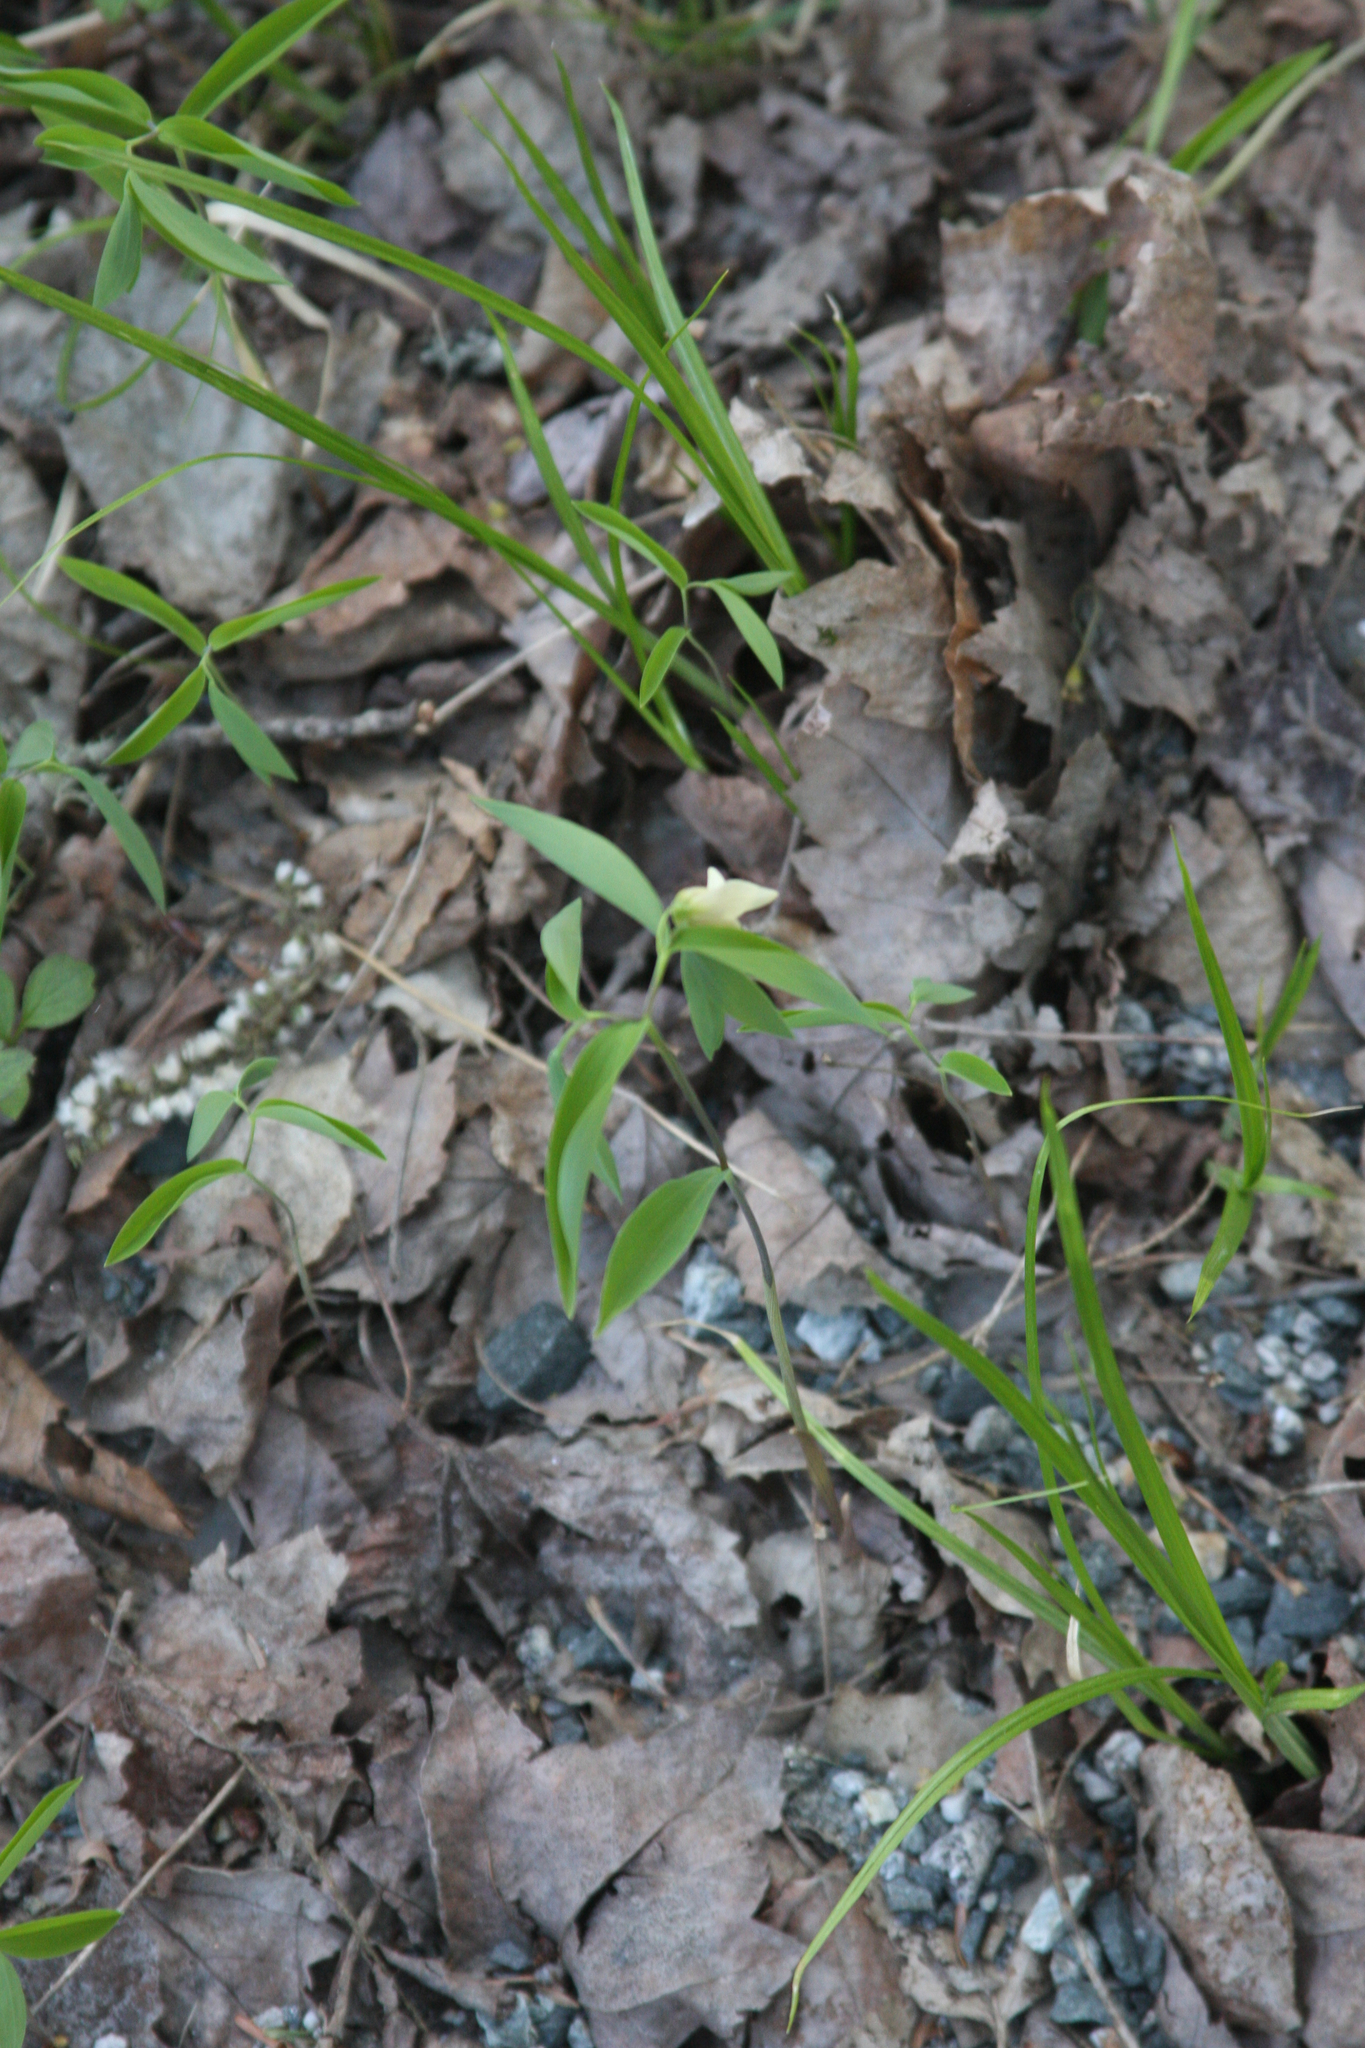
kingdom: Plantae
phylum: Tracheophyta
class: Liliopsida
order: Liliales
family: Colchicaceae
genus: Uvularia
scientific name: Uvularia sessilifolia
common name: Straw-lily
